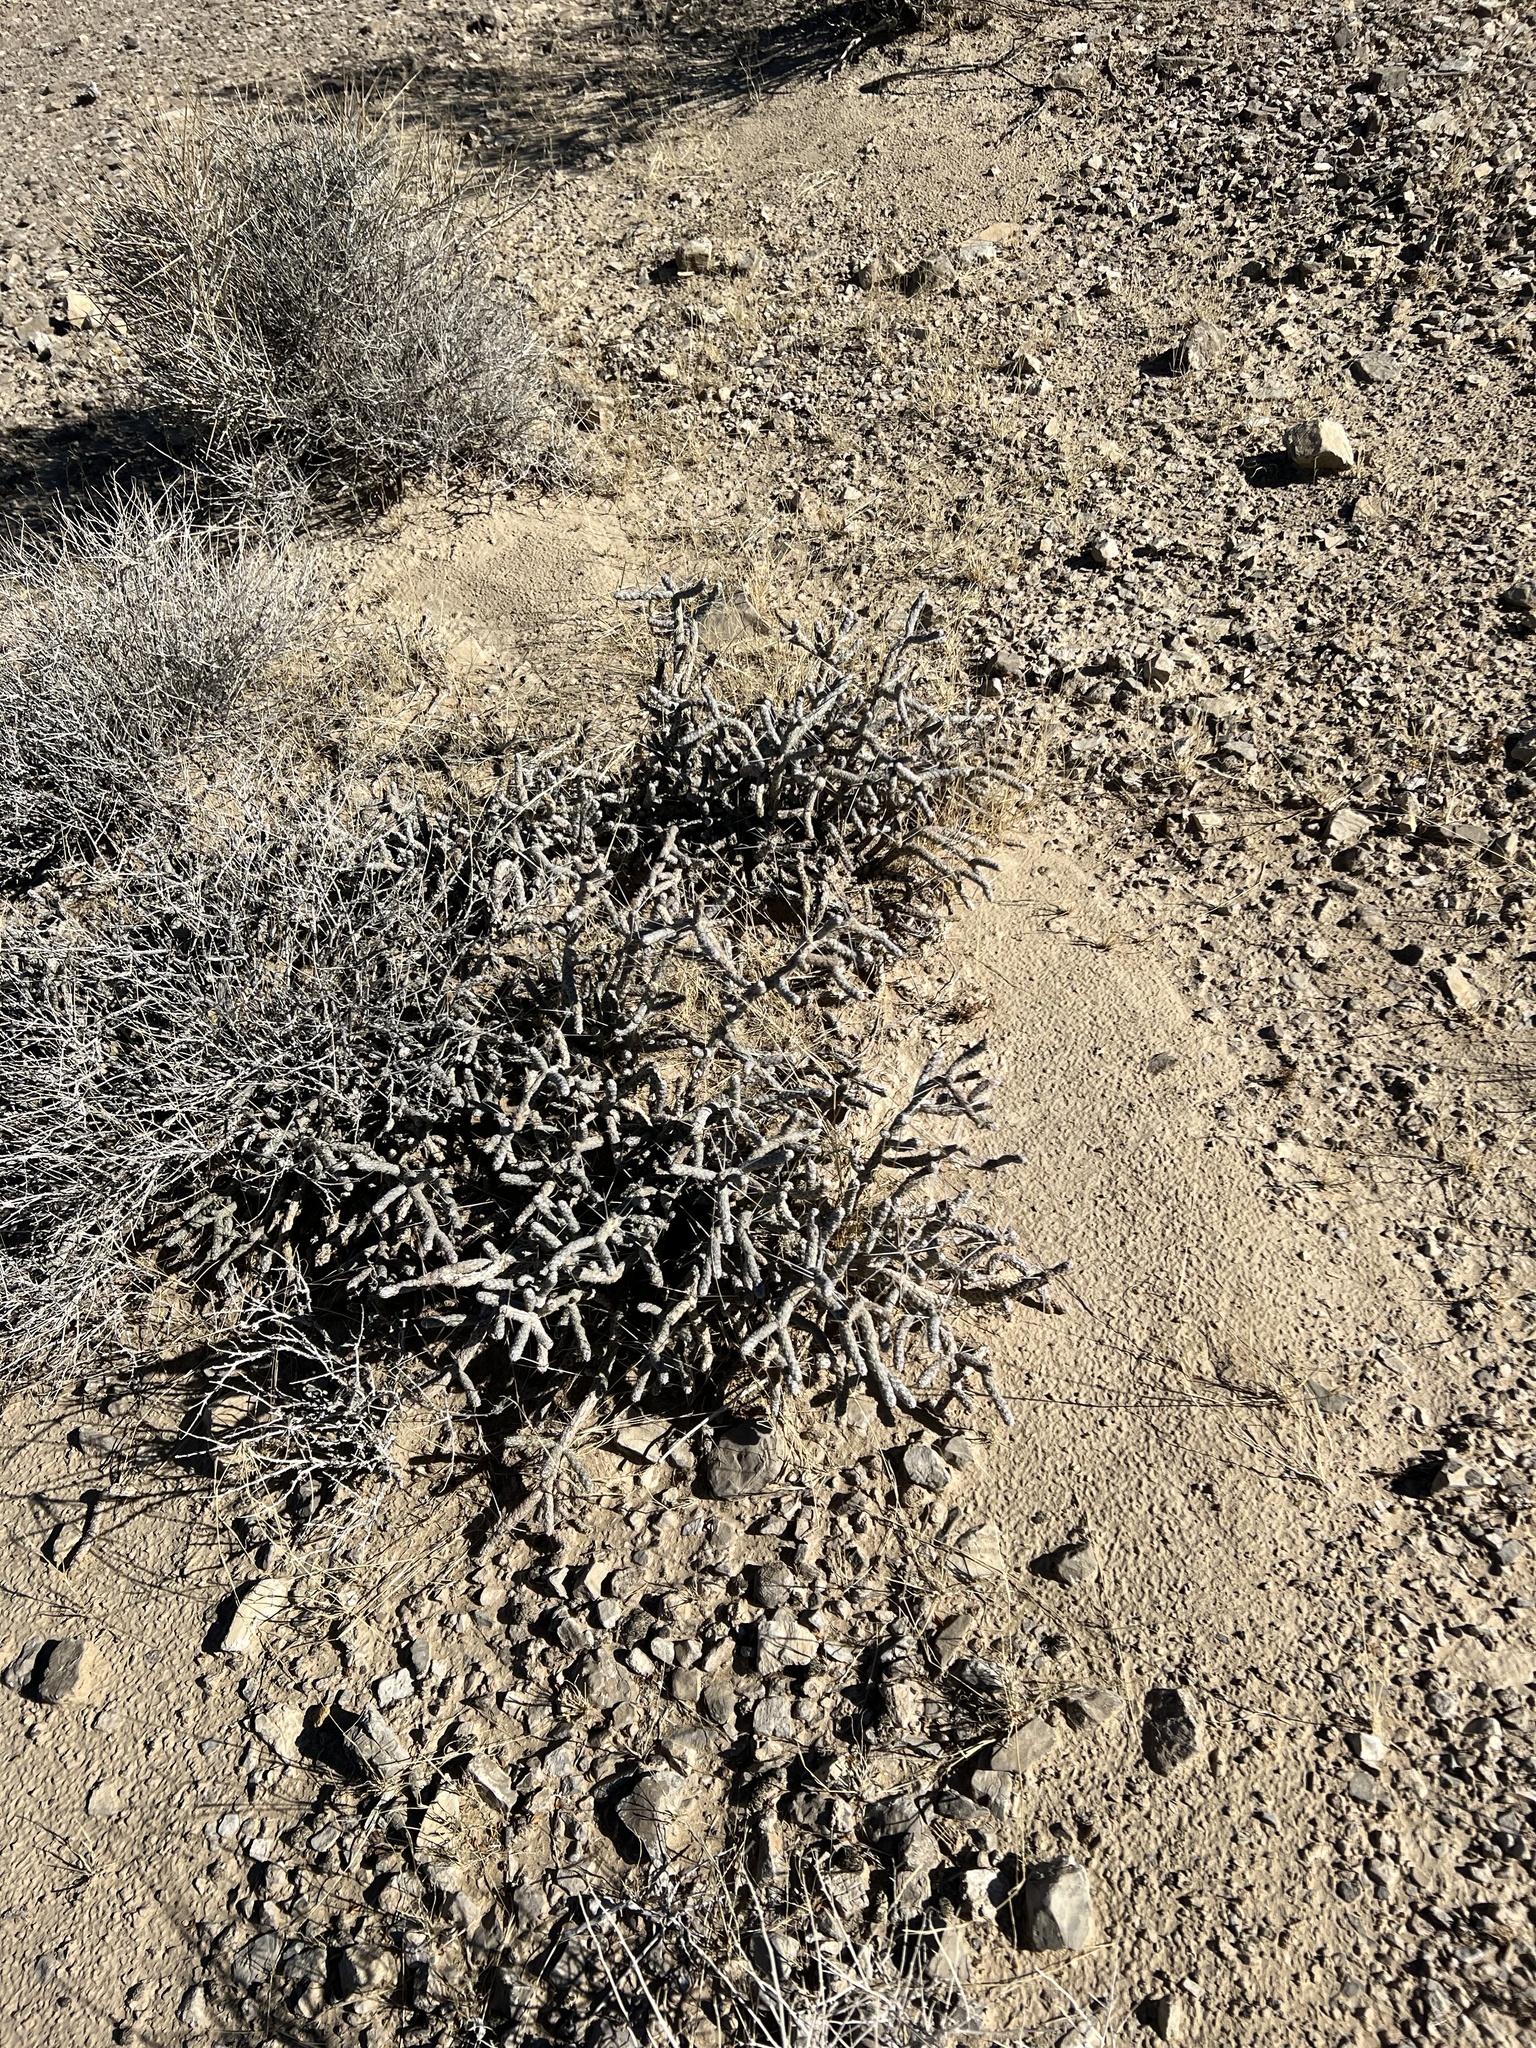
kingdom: Plantae
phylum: Tracheophyta
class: Magnoliopsida
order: Caryophyllales
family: Cactaceae
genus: Cylindropuntia
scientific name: Cylindropuntia ramosissima
